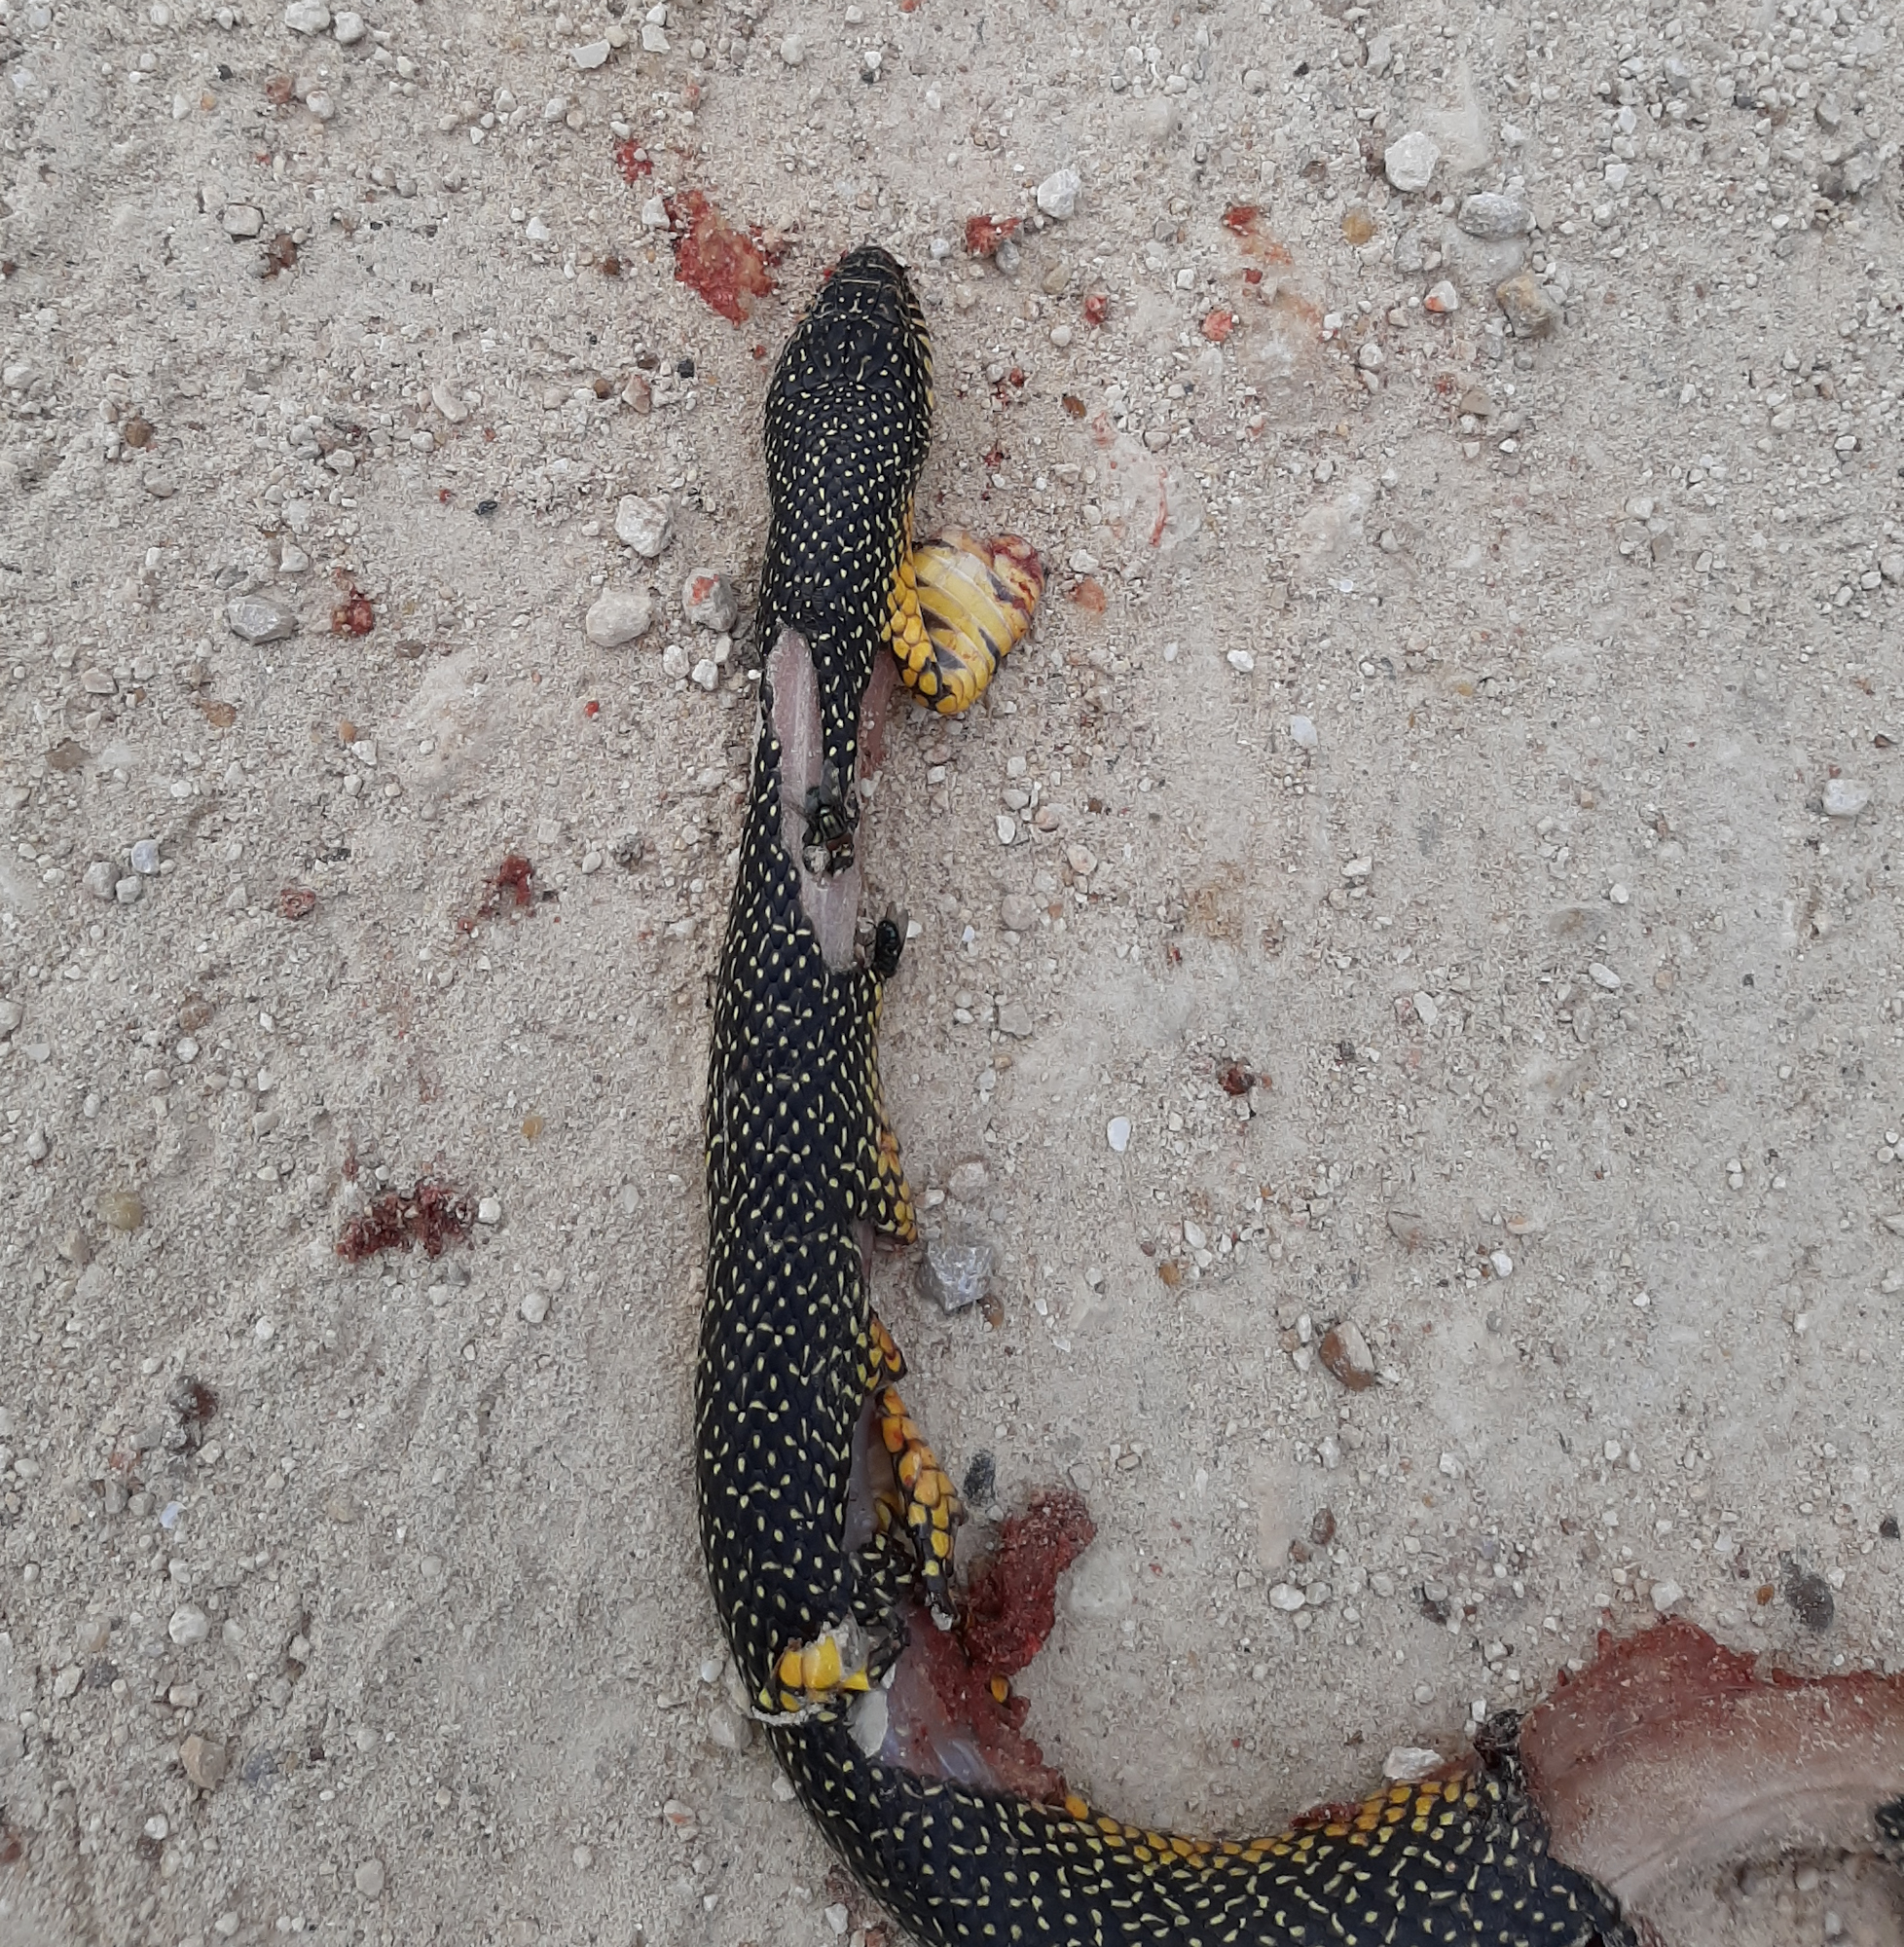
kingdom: Animalia
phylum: Chordata
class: Squamata
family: Colubridae
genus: Lampropeltis
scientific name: Lampropeltis holbrooki
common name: Speckled kingsnake
